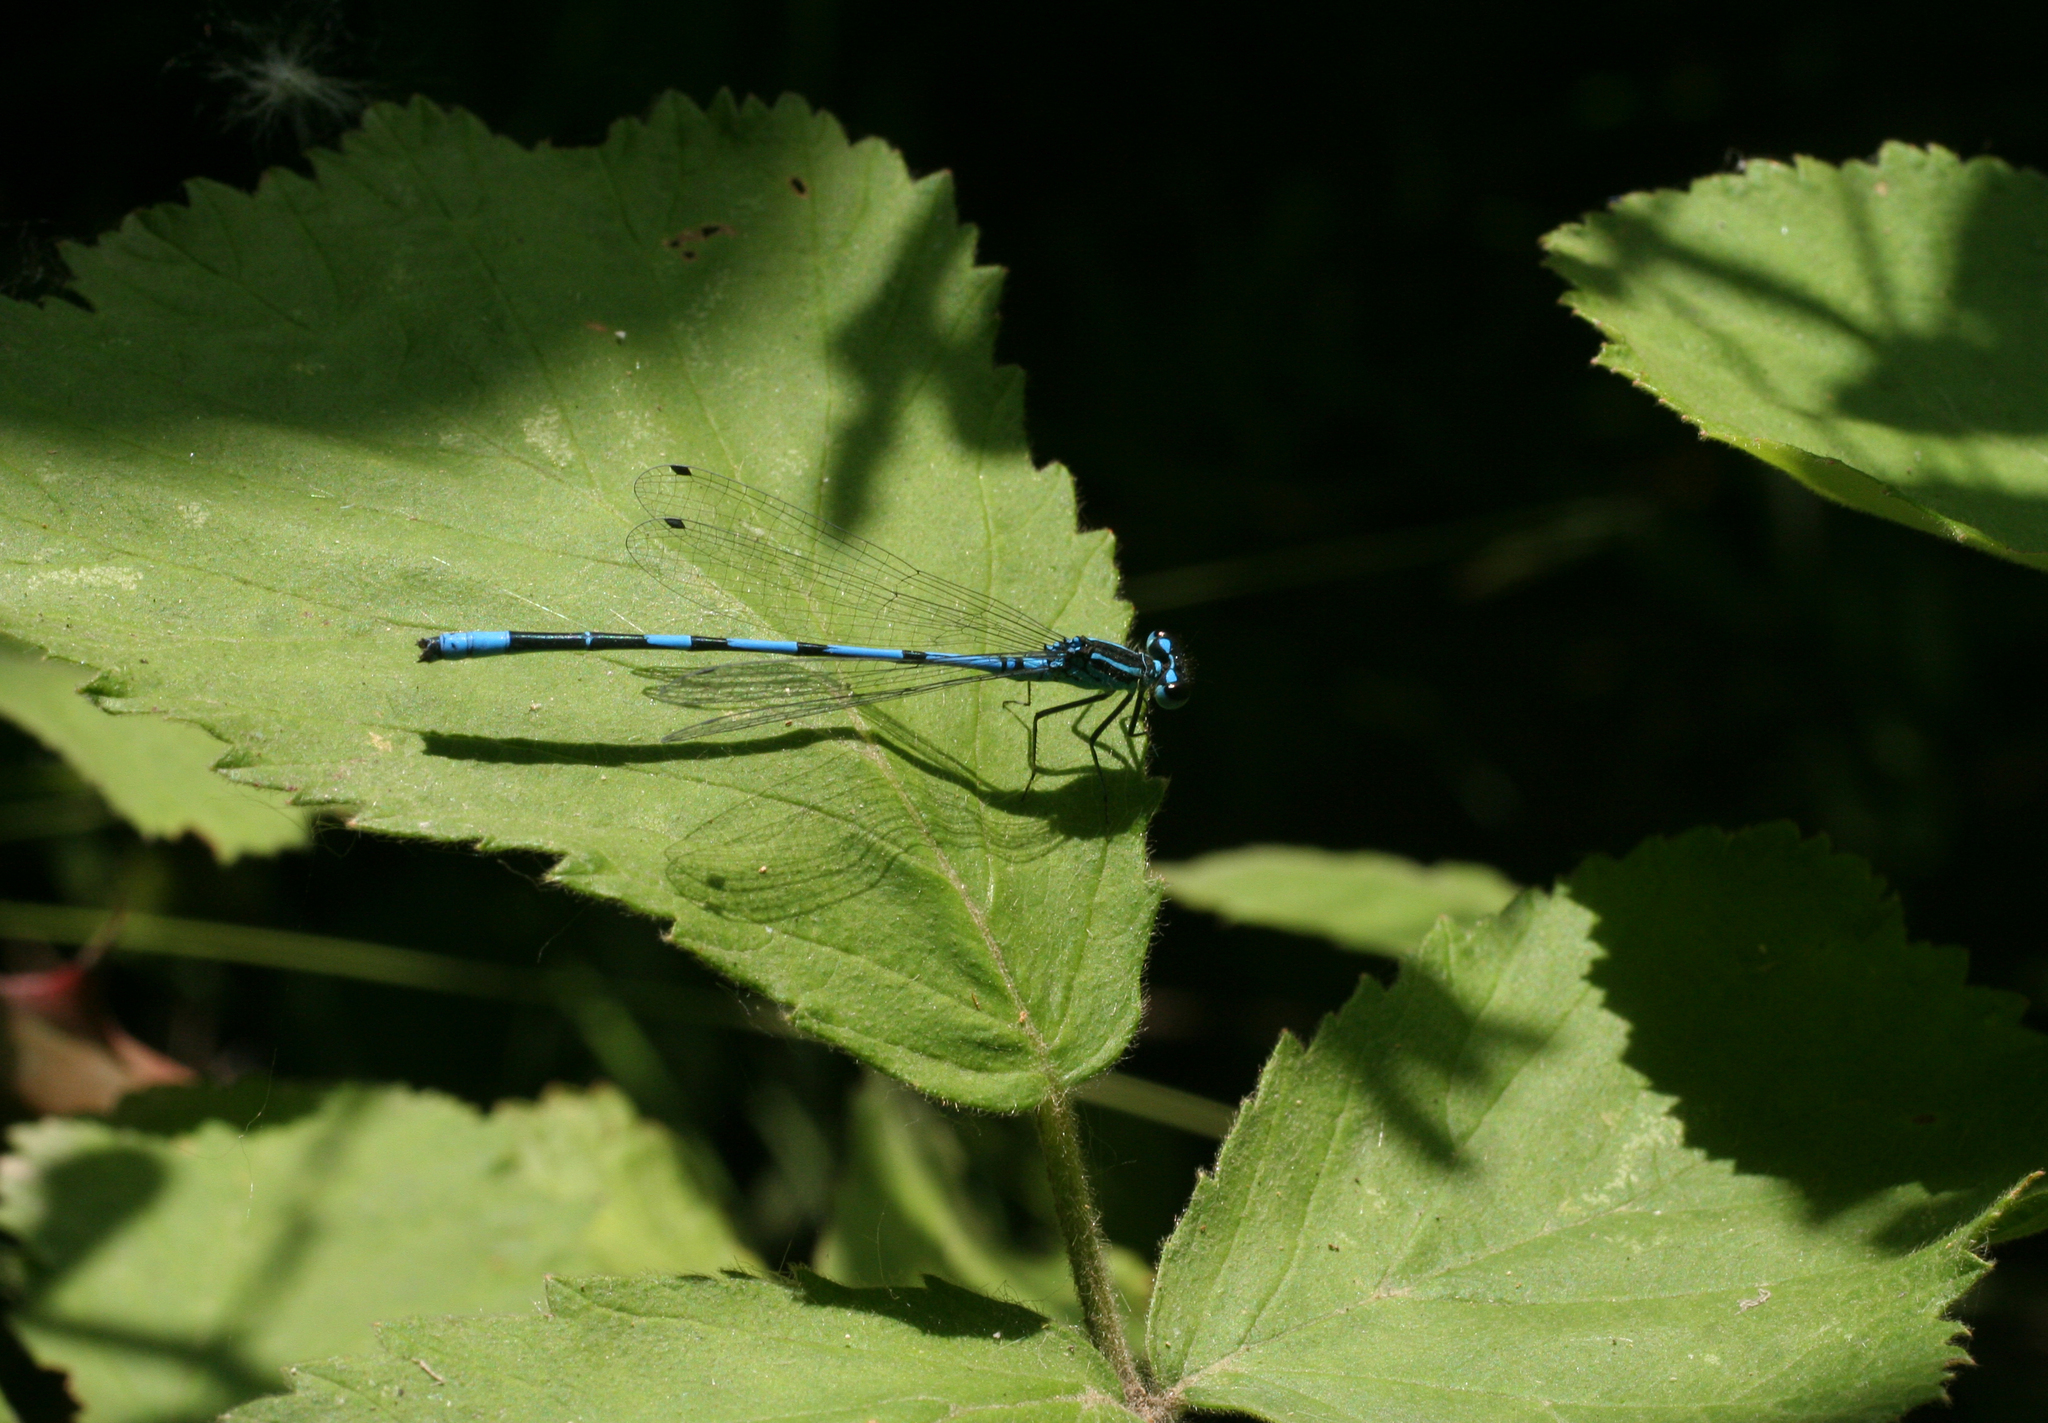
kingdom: Animalia
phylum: Arthropoda
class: Insecta
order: Odonata
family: Coenagrionidae
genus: Coenagrion
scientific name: Coenagrion australocaspicum
